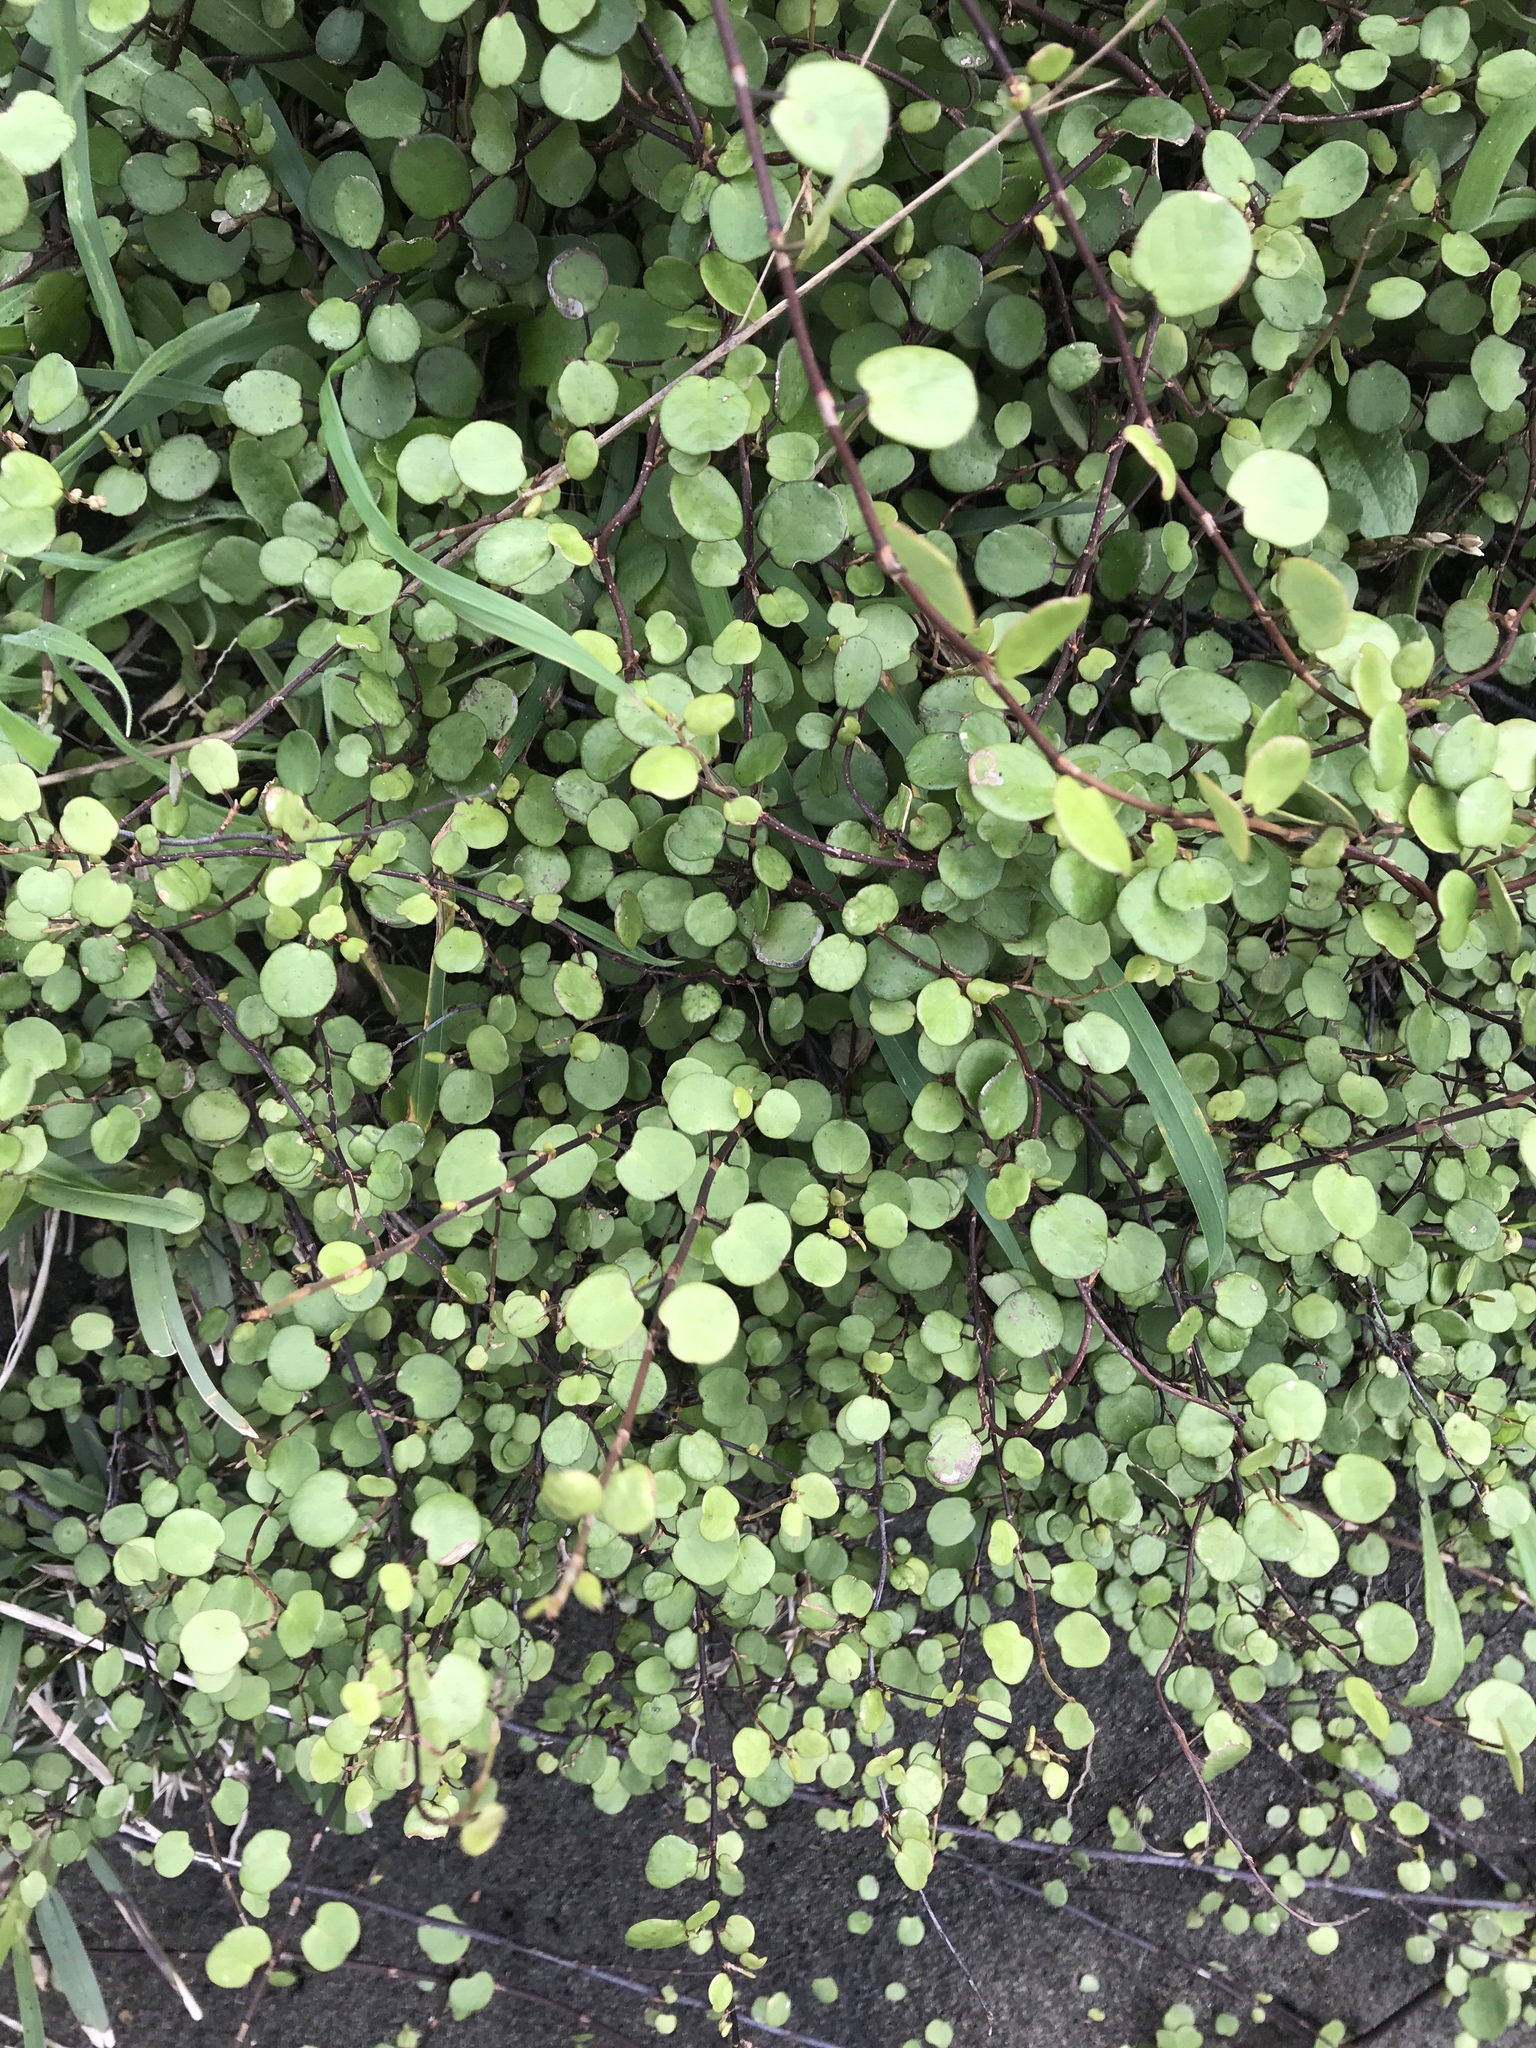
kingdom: Plantae
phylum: Tracheophyta
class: Magnoliopsida
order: Caryophyllales
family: Polygonaceae
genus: Muehlenbeckia
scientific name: Muehlenbeckia complexa
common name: Wireplant
